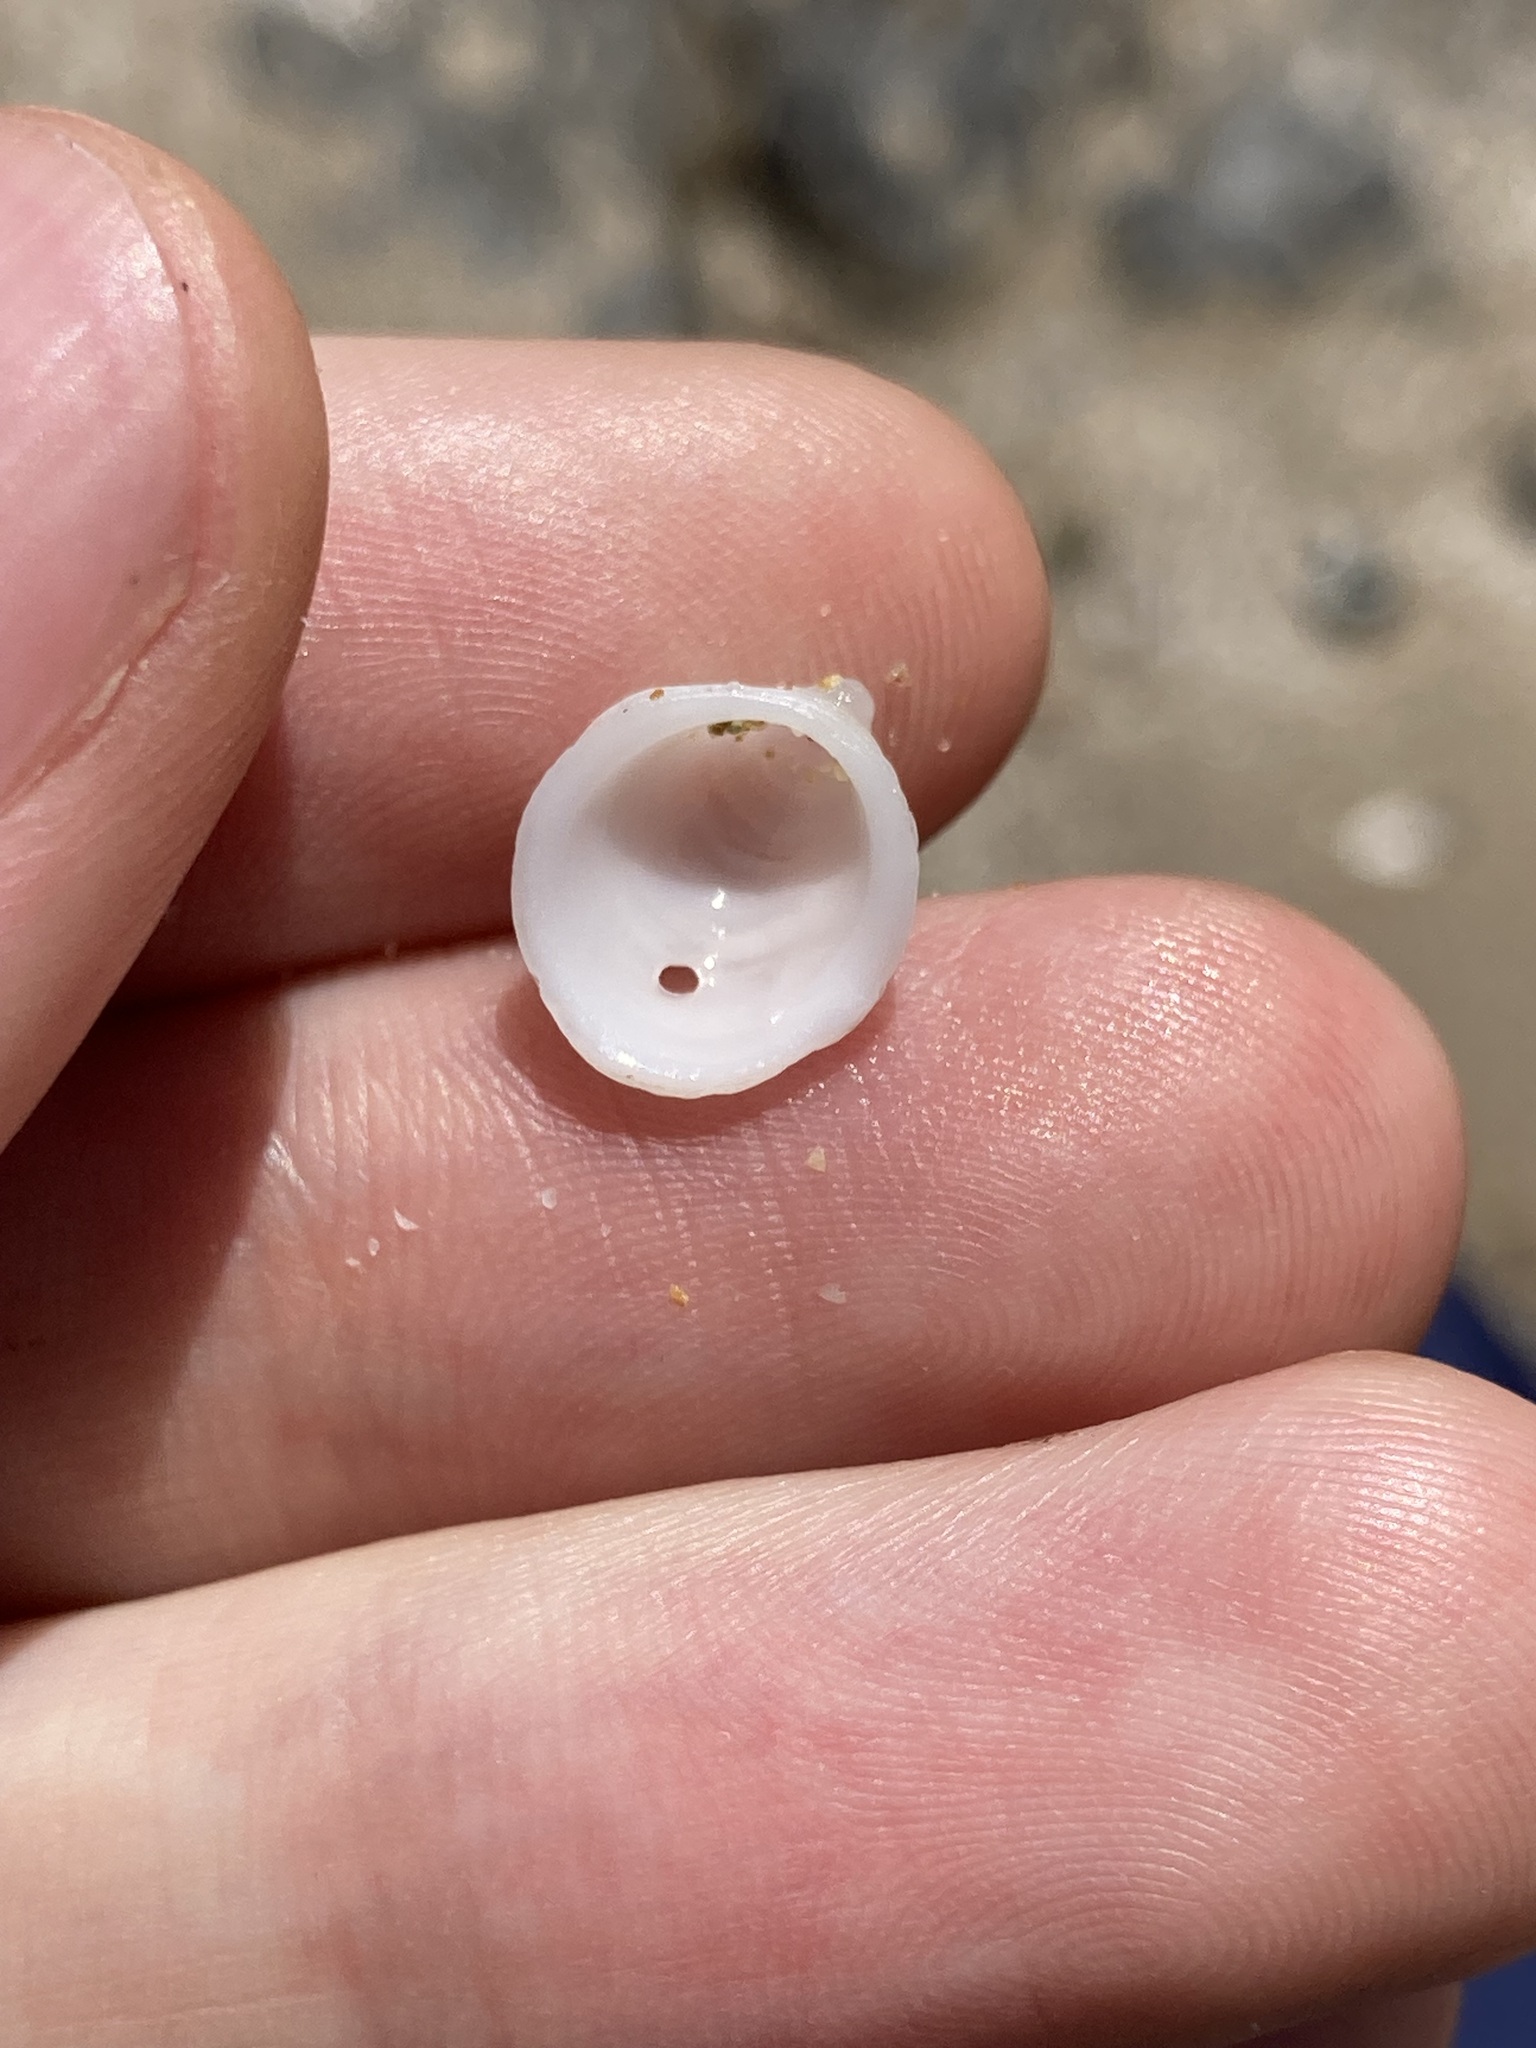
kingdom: Animalia
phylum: Mollusca
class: Gastropoda
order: Littorinimorpha
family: Hipponicidae
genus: Antisabia
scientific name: Antisabia foliacea
